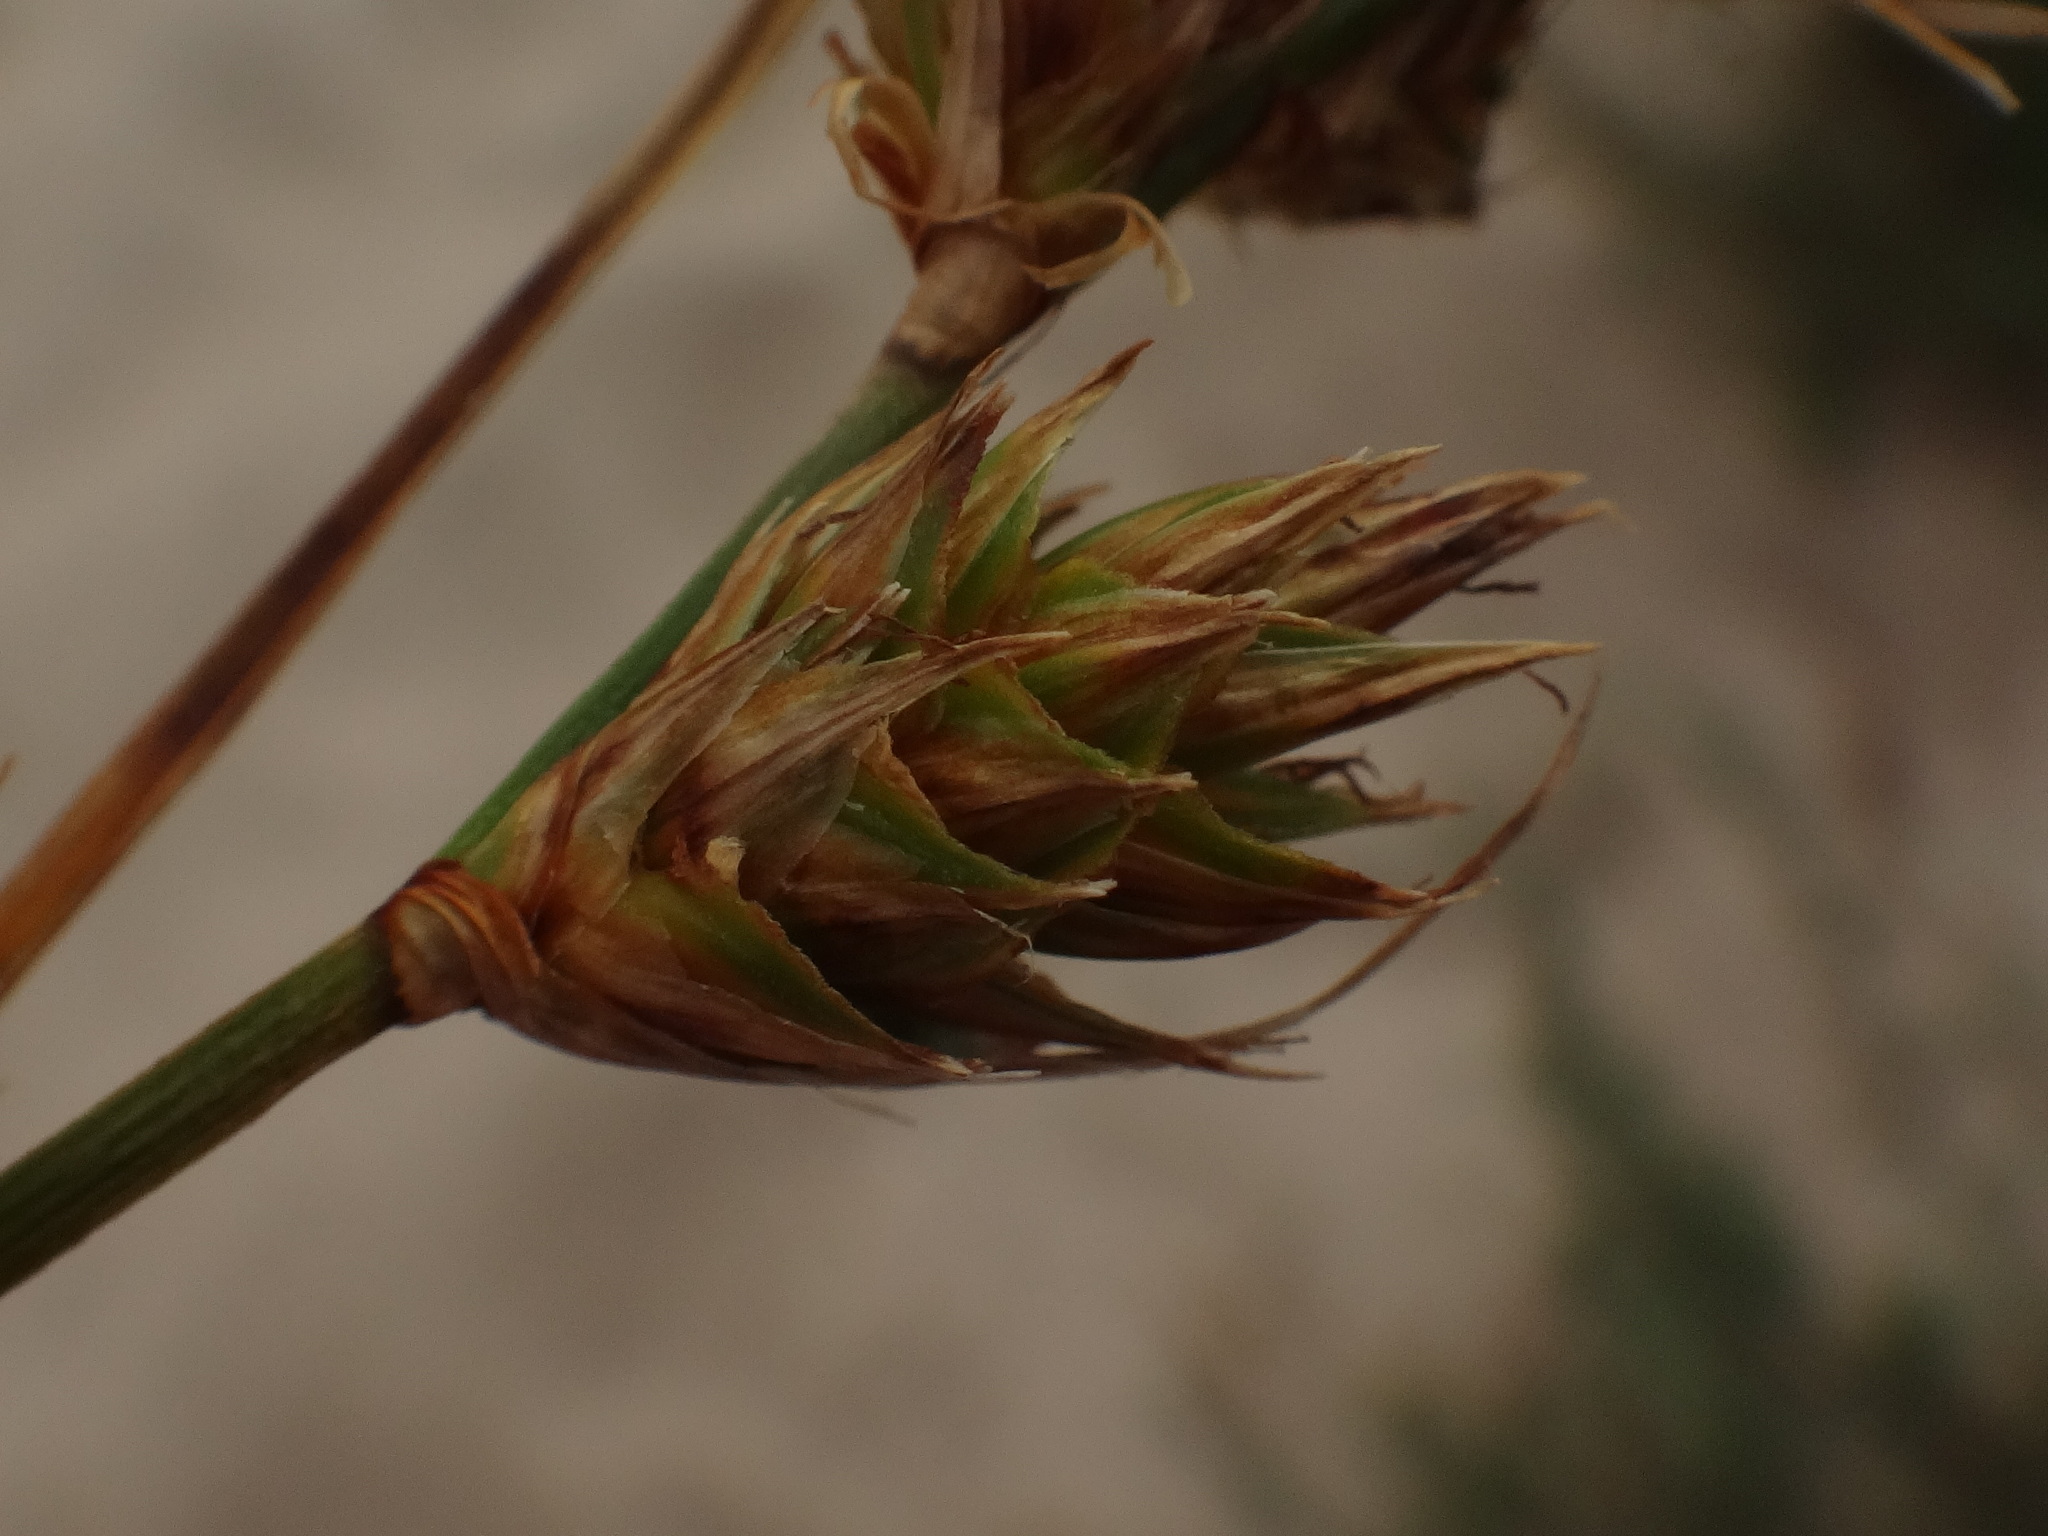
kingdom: Plantae
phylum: Tracheophyta
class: Liliopsida
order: Poales
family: Cyperaceae
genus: Carex
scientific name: Carex arenaria
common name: Sand sedge
